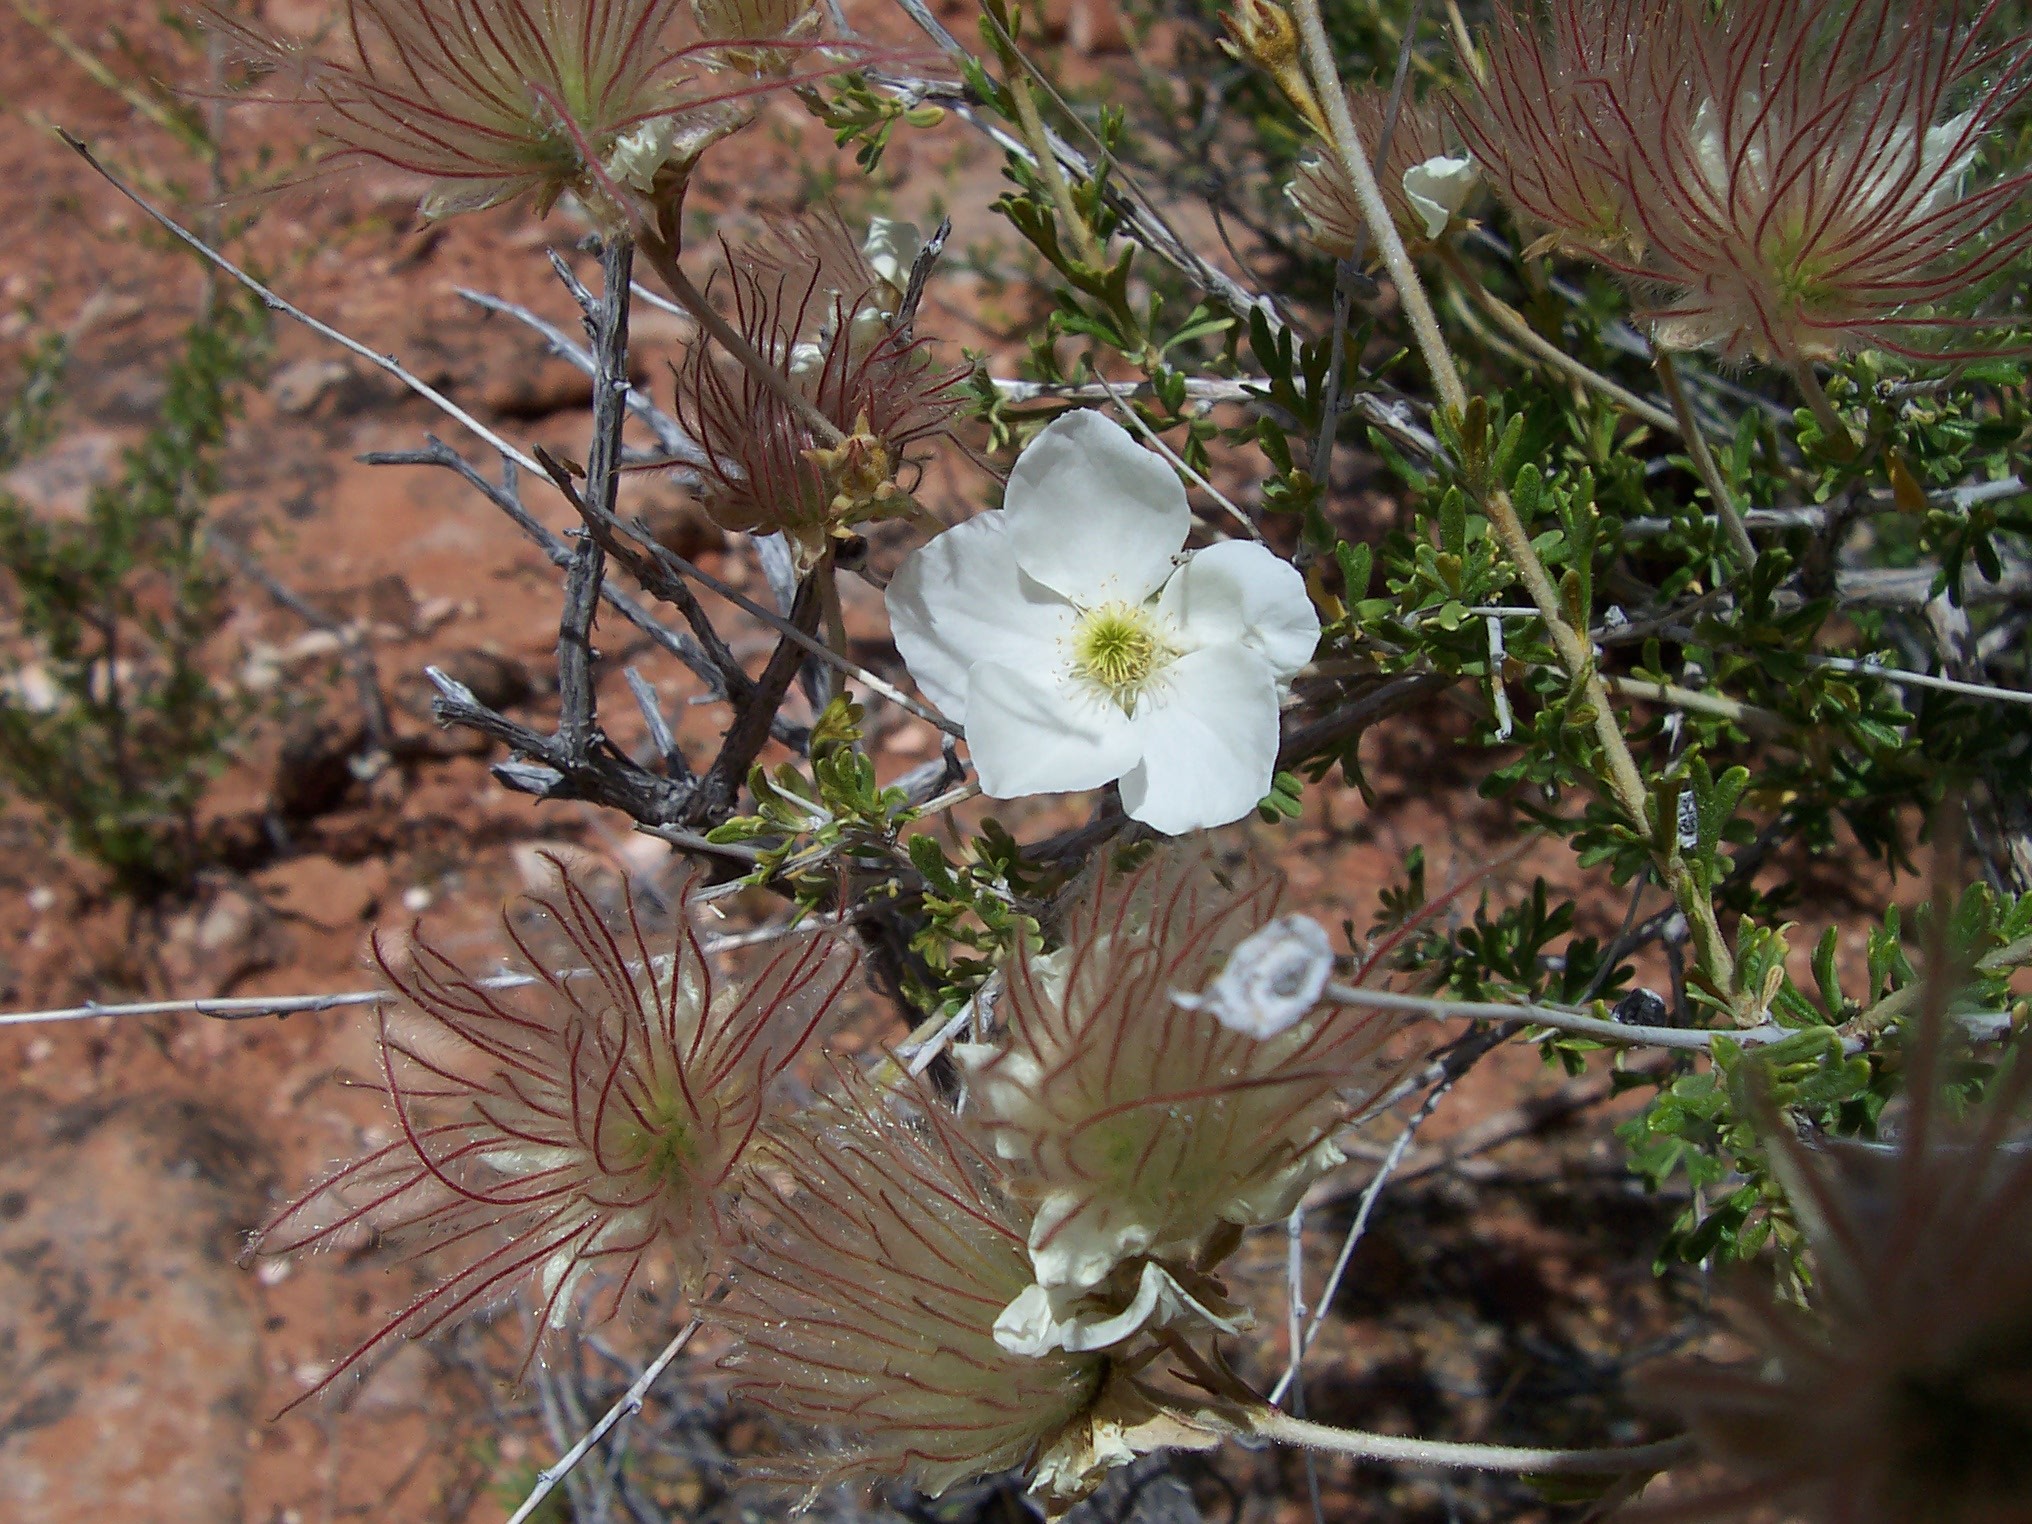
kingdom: Plantae
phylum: Tracheophyta
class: Magnoliopsida
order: Rosales
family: Rosaceae
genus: Fallugia
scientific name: Fallugia paradoxa
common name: Apache-plume
